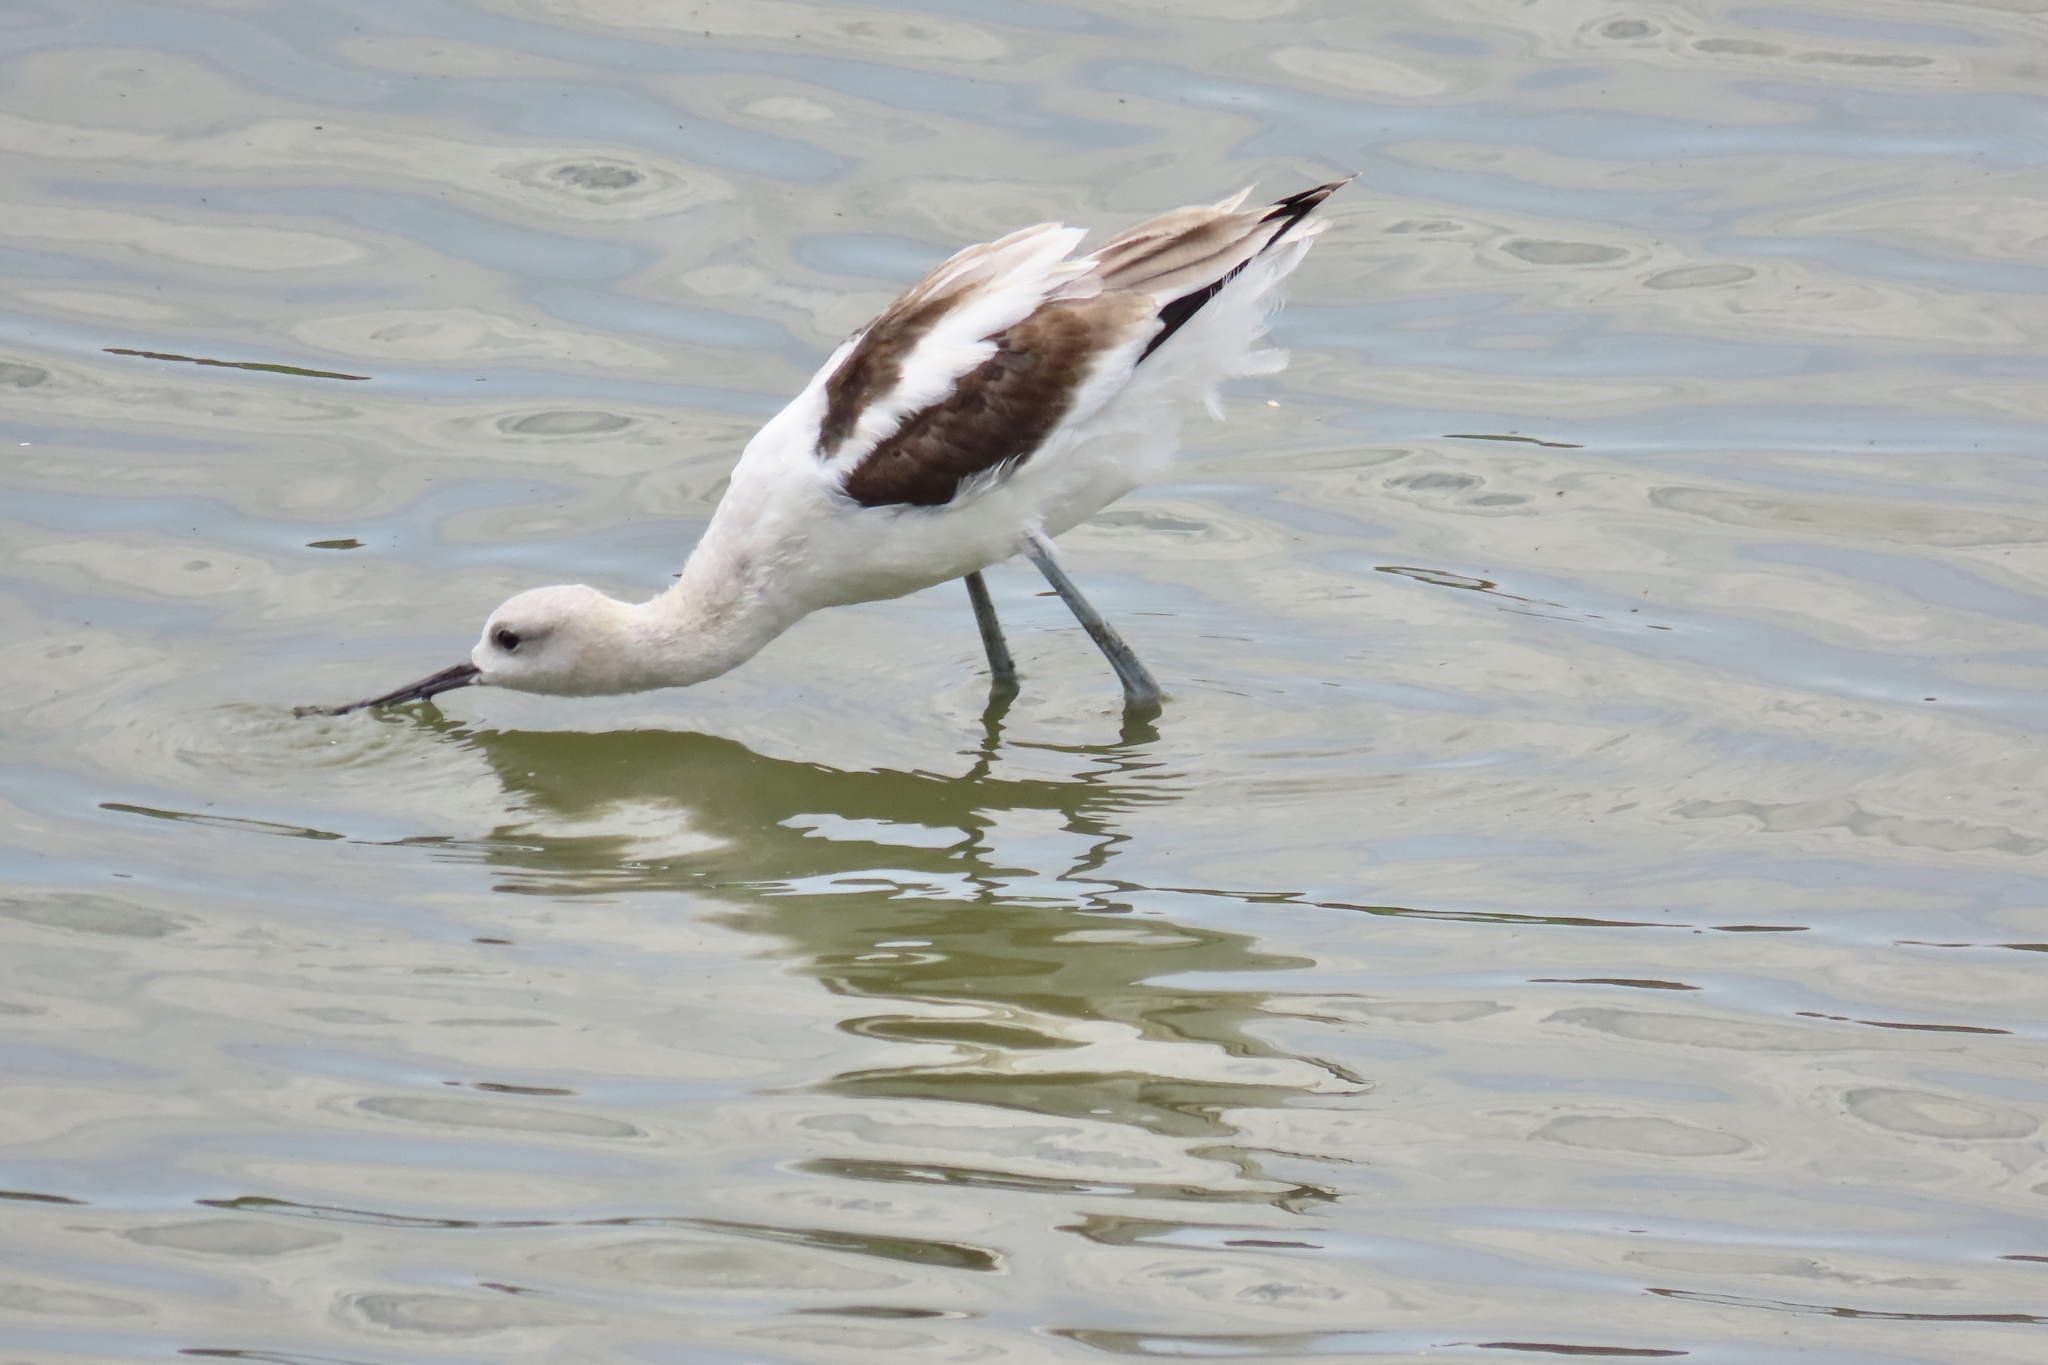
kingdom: Animalia
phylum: Chordata
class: Aves
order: Charadriiformes
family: Recurvirostridae
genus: Recurvirostra
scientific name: Recurvirostra americana
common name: American avocet
